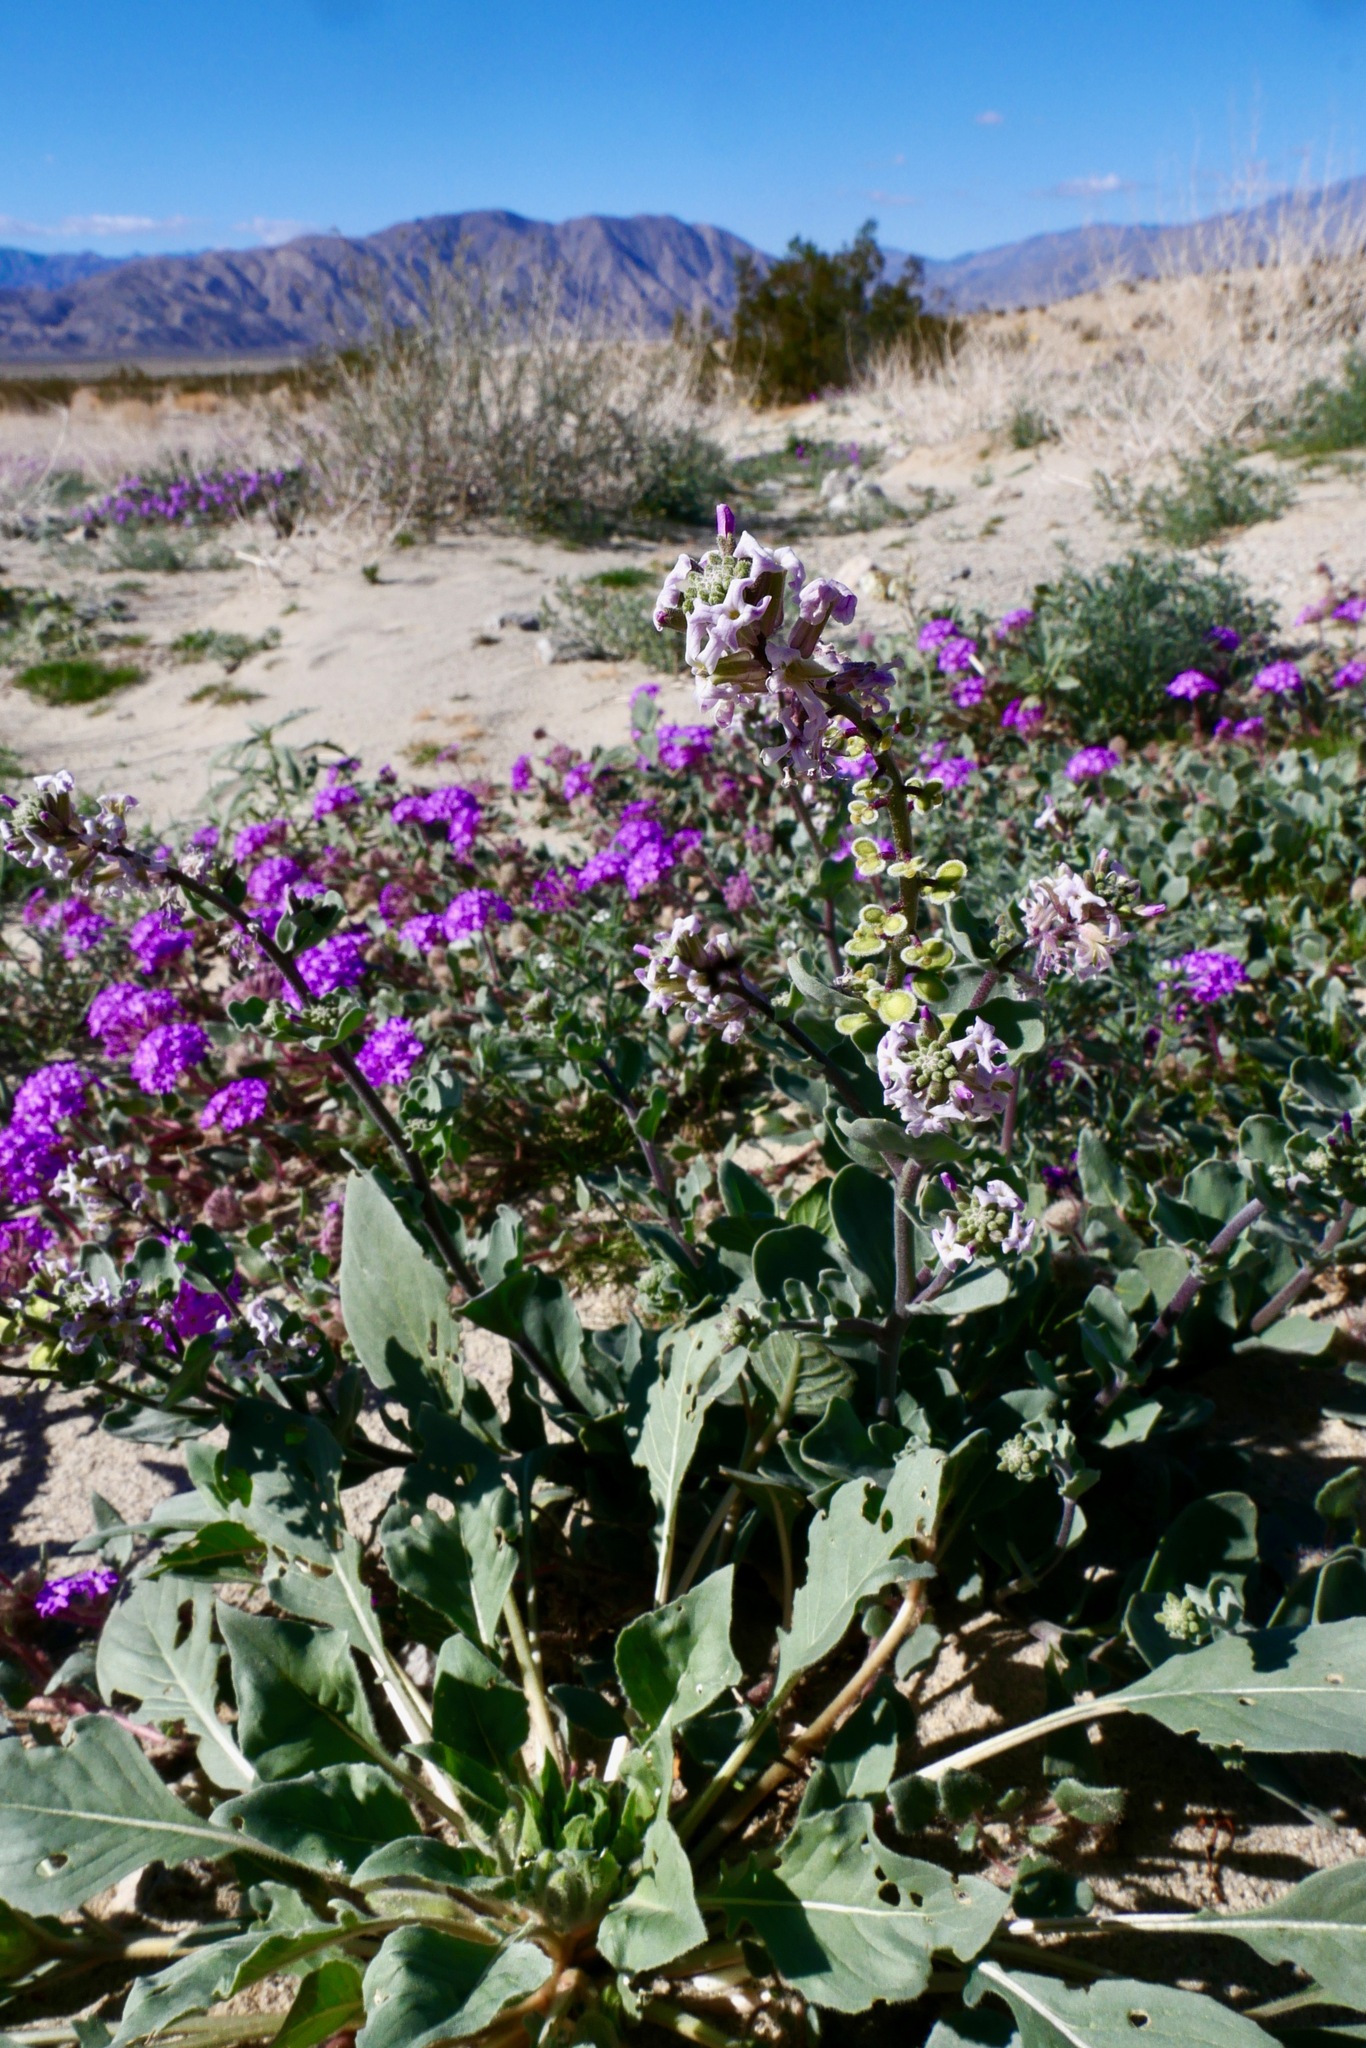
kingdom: Plantae
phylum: Tracheophyta
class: Magnoliopsida
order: Brassicales
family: Brassicaceae
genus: Dithyrea
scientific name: Dithyrea californica
